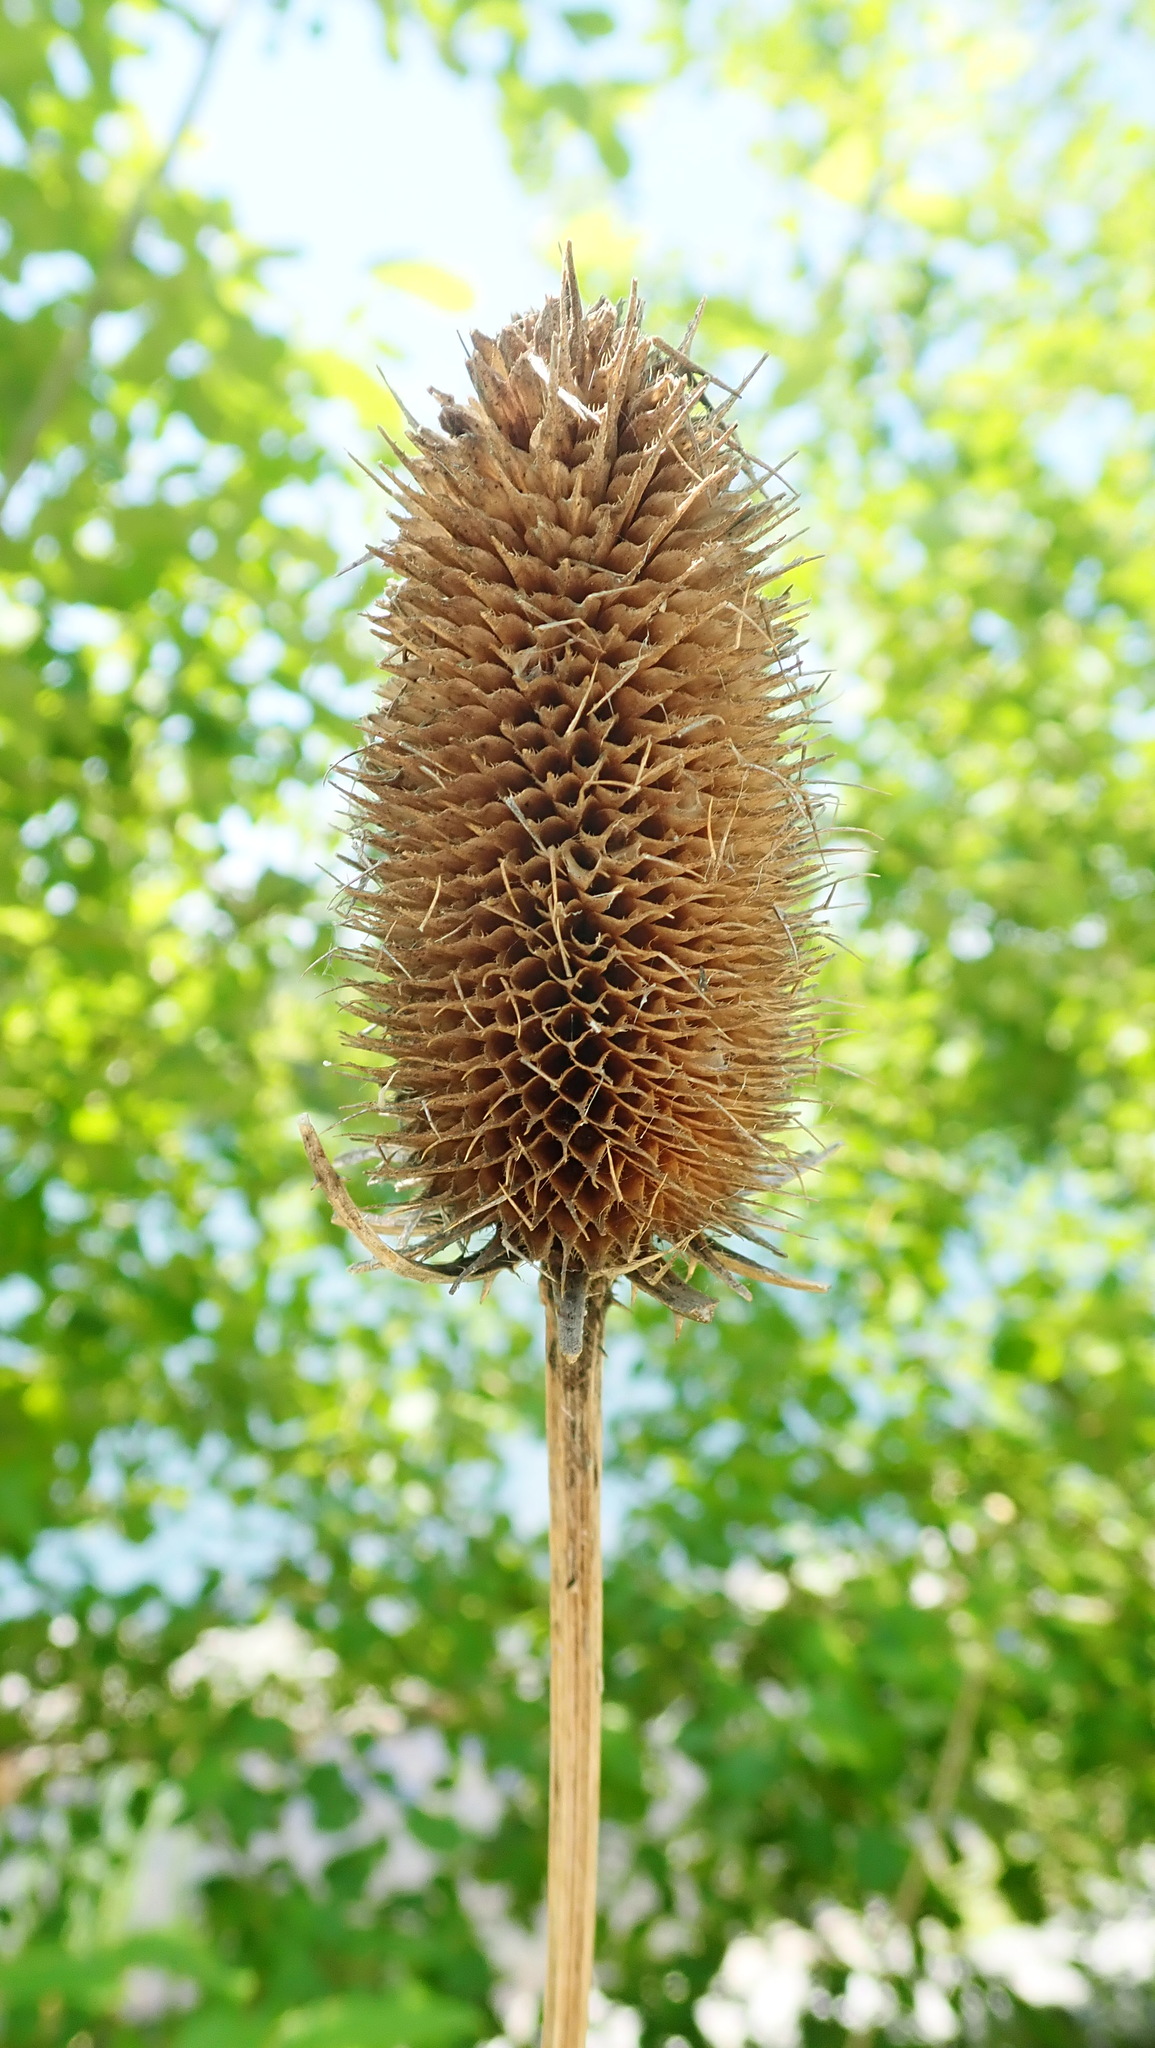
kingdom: Plantae
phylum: Tracheophyta
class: Magnoliopsida
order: Dipsacales
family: Caprifoliaceae
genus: Dipsacus
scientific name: Dipsacus fullonum
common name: Teasel
